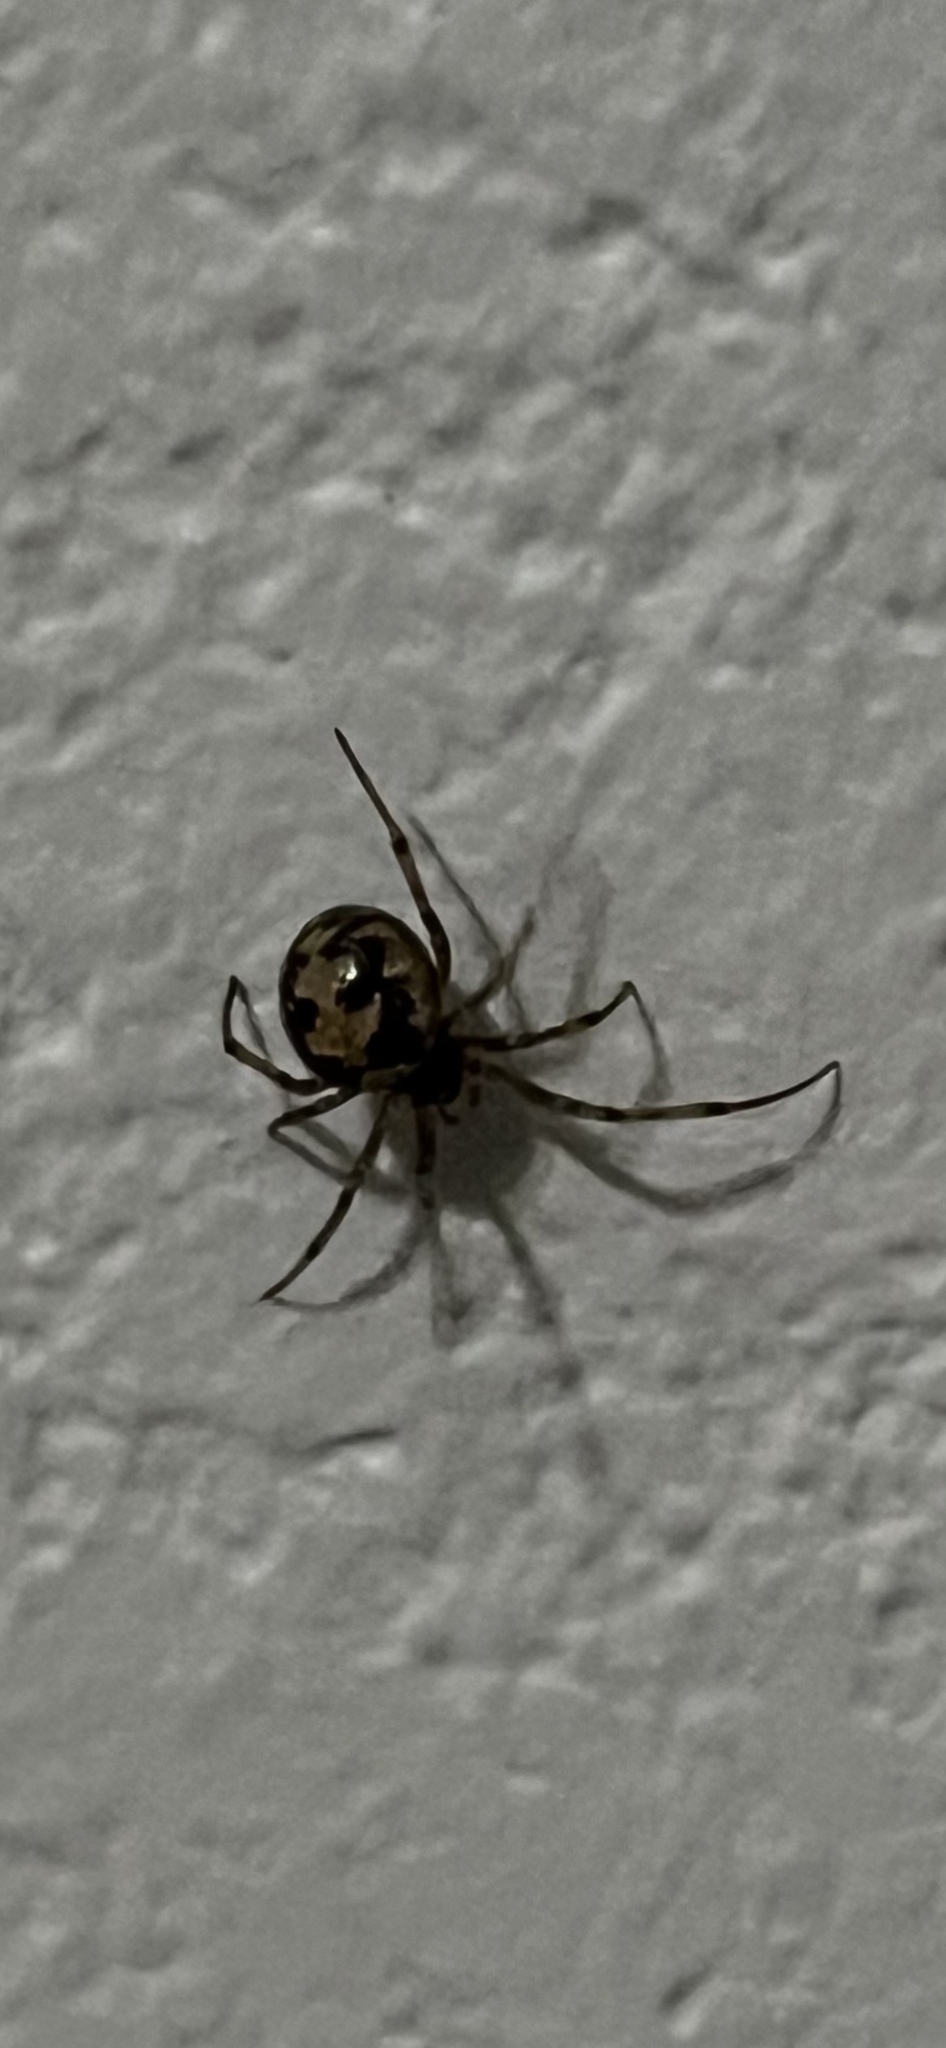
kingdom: Animalia
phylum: Arthropoda
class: Arachnida
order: Araneae
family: Theridiidae
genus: Steatoda
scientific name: Steatoda triangulosa
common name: Triangulate bud spider
